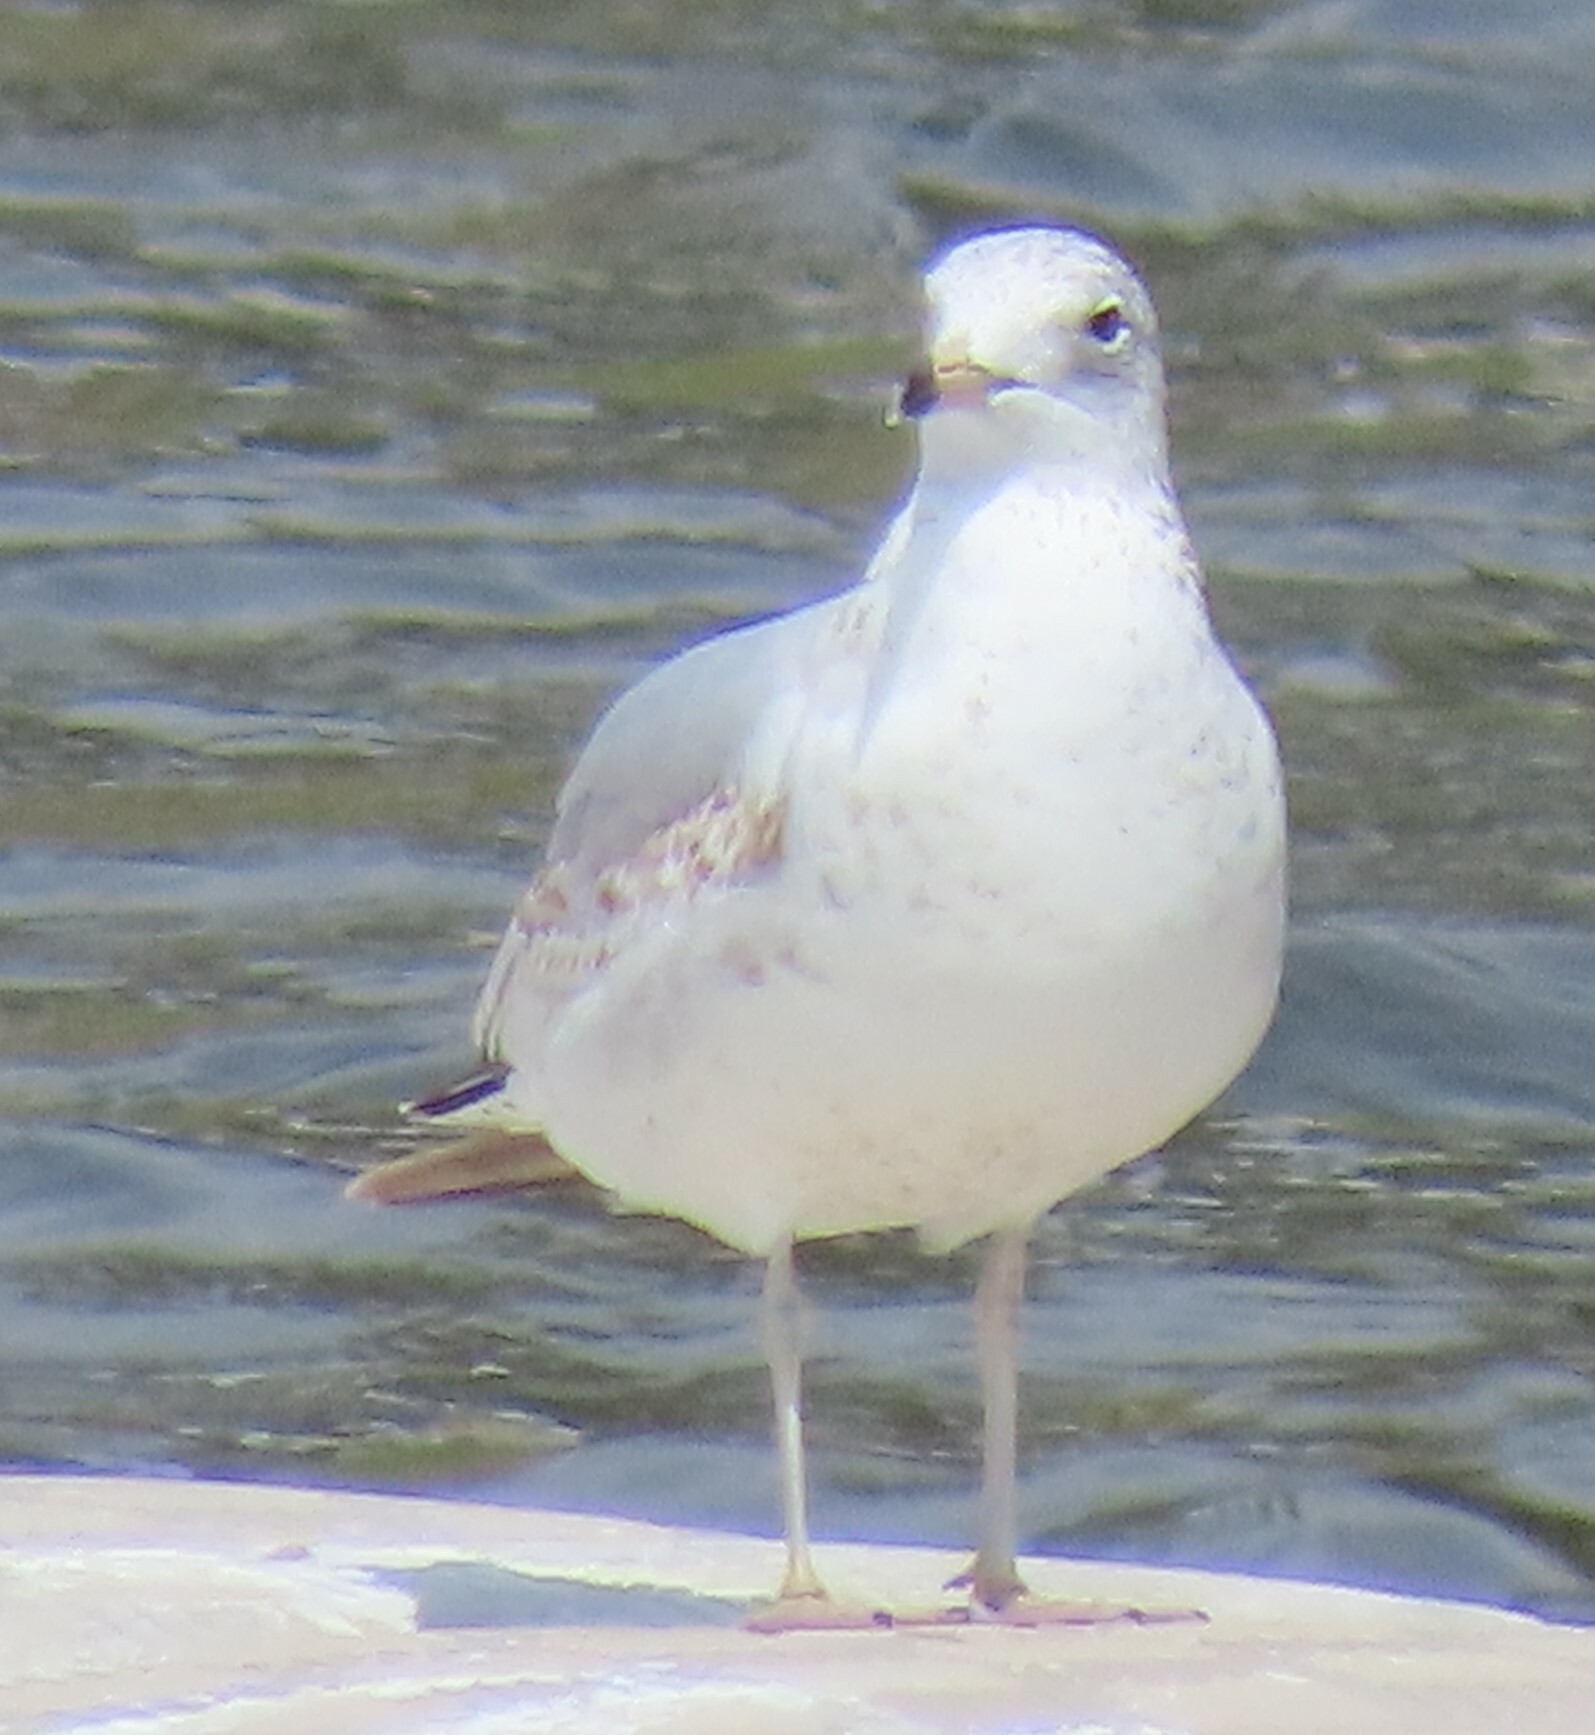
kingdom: Animalia
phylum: Chordata
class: Aves
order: Charadriiformes
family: Laridae
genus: Larus
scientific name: Larus delawarensis
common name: Ring-billed gull
